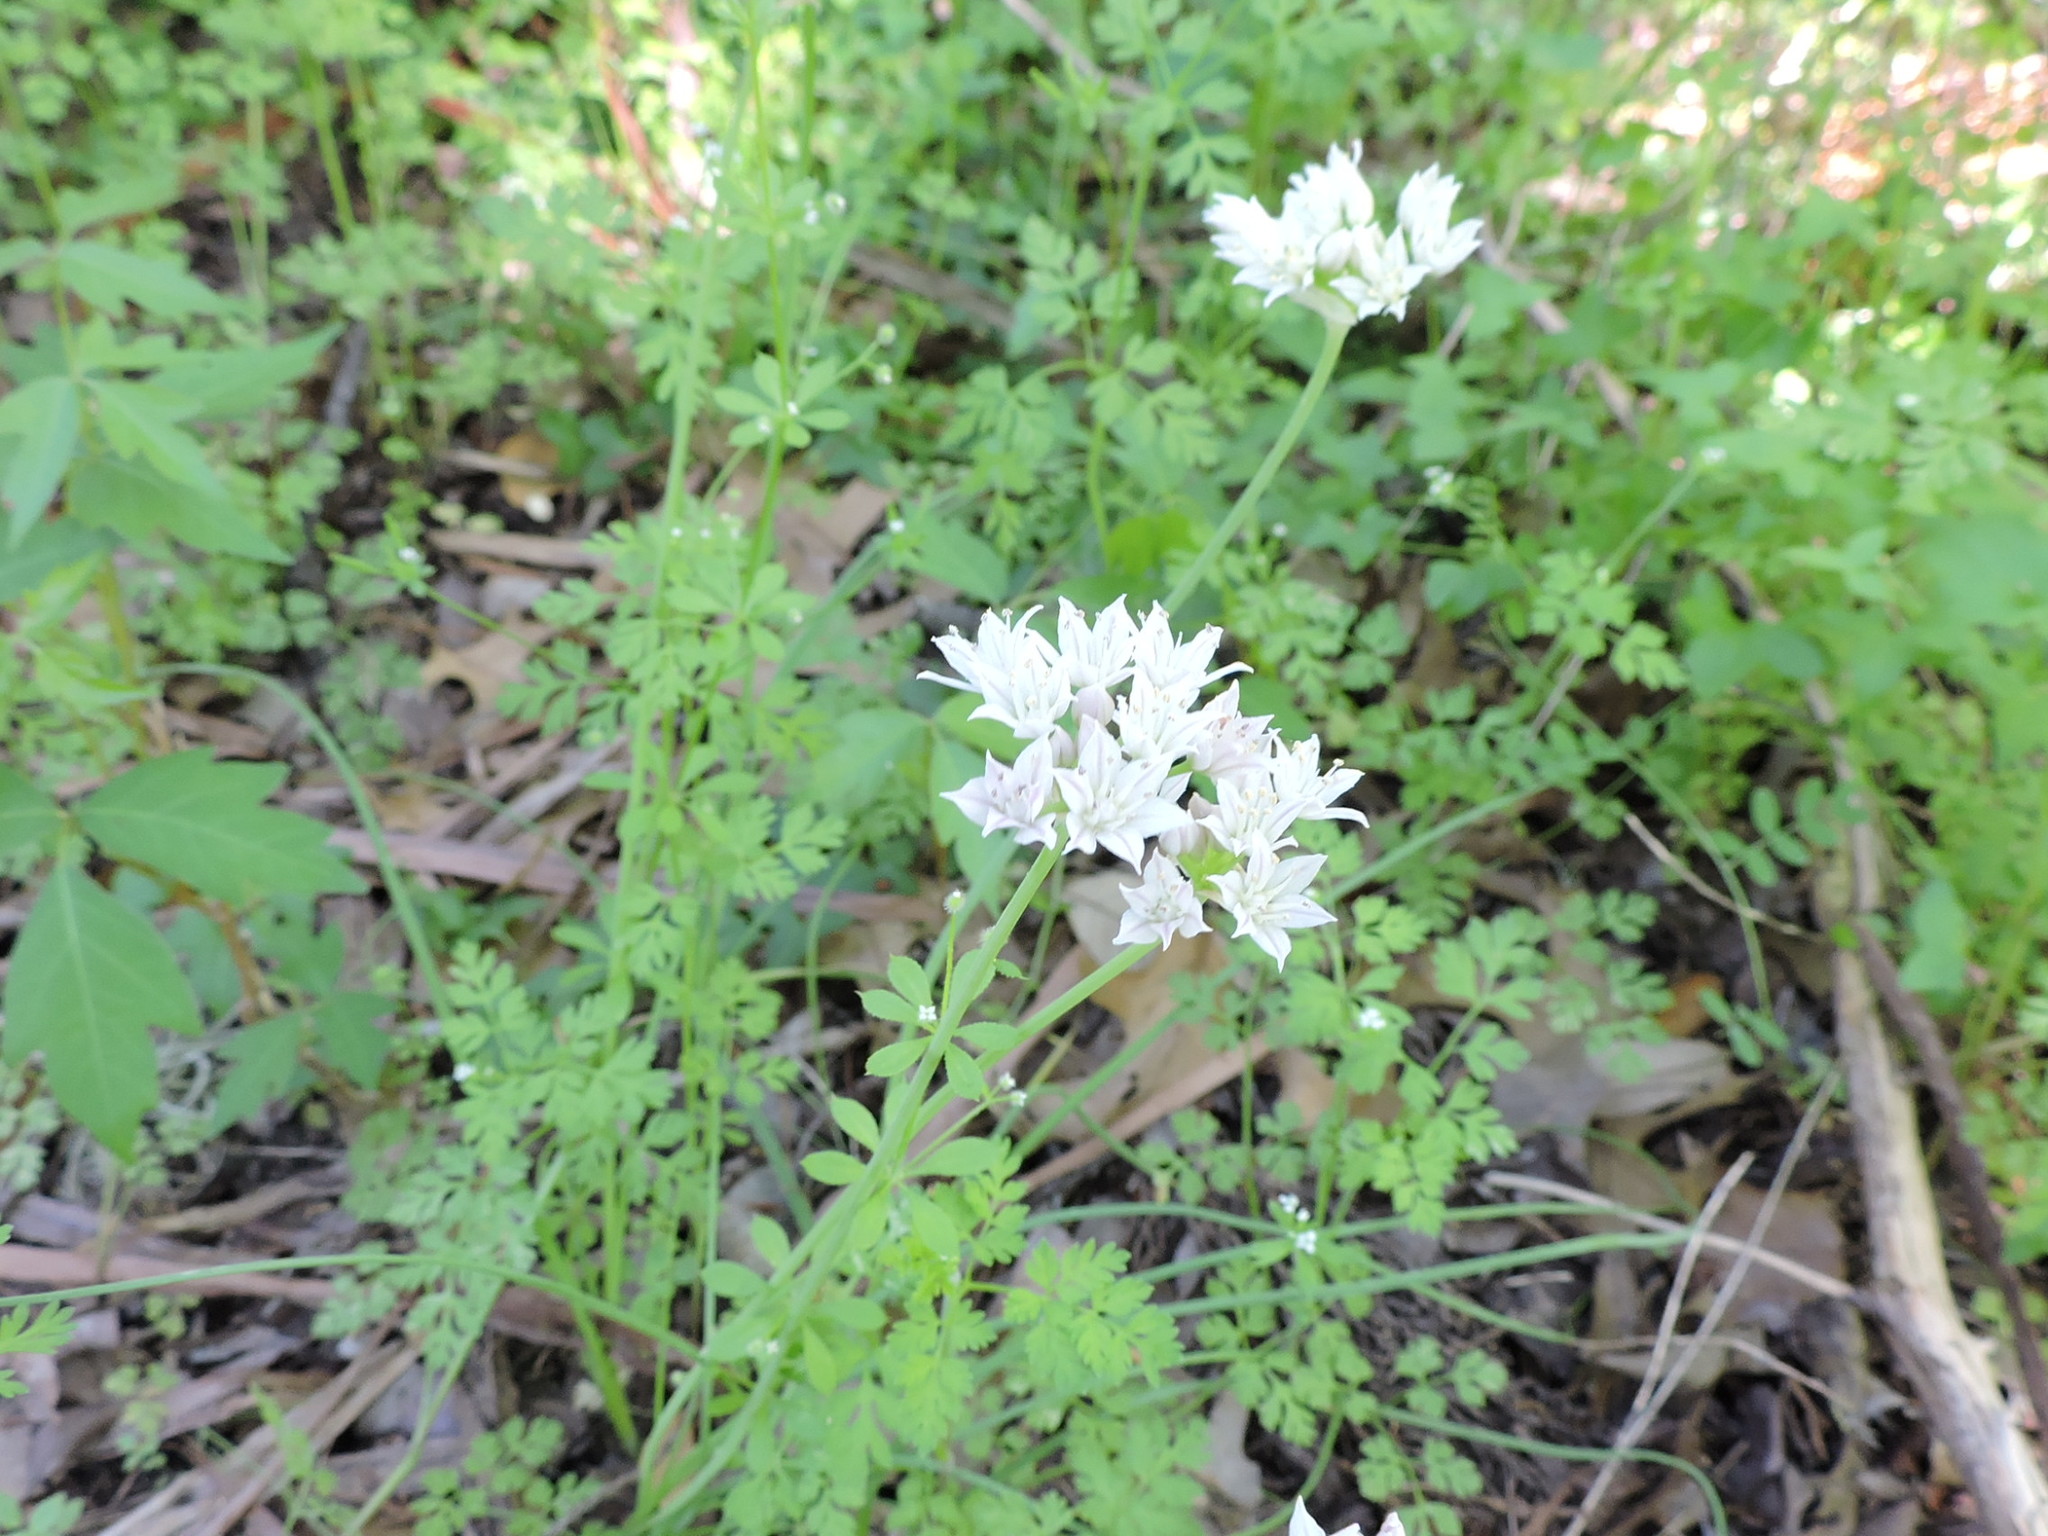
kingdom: Plantae
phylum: Tracheophyta
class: Liliopsida
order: Asparagales
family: Amaryllidaceae
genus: Allium
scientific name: Allium canadense
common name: Meadow garlic
